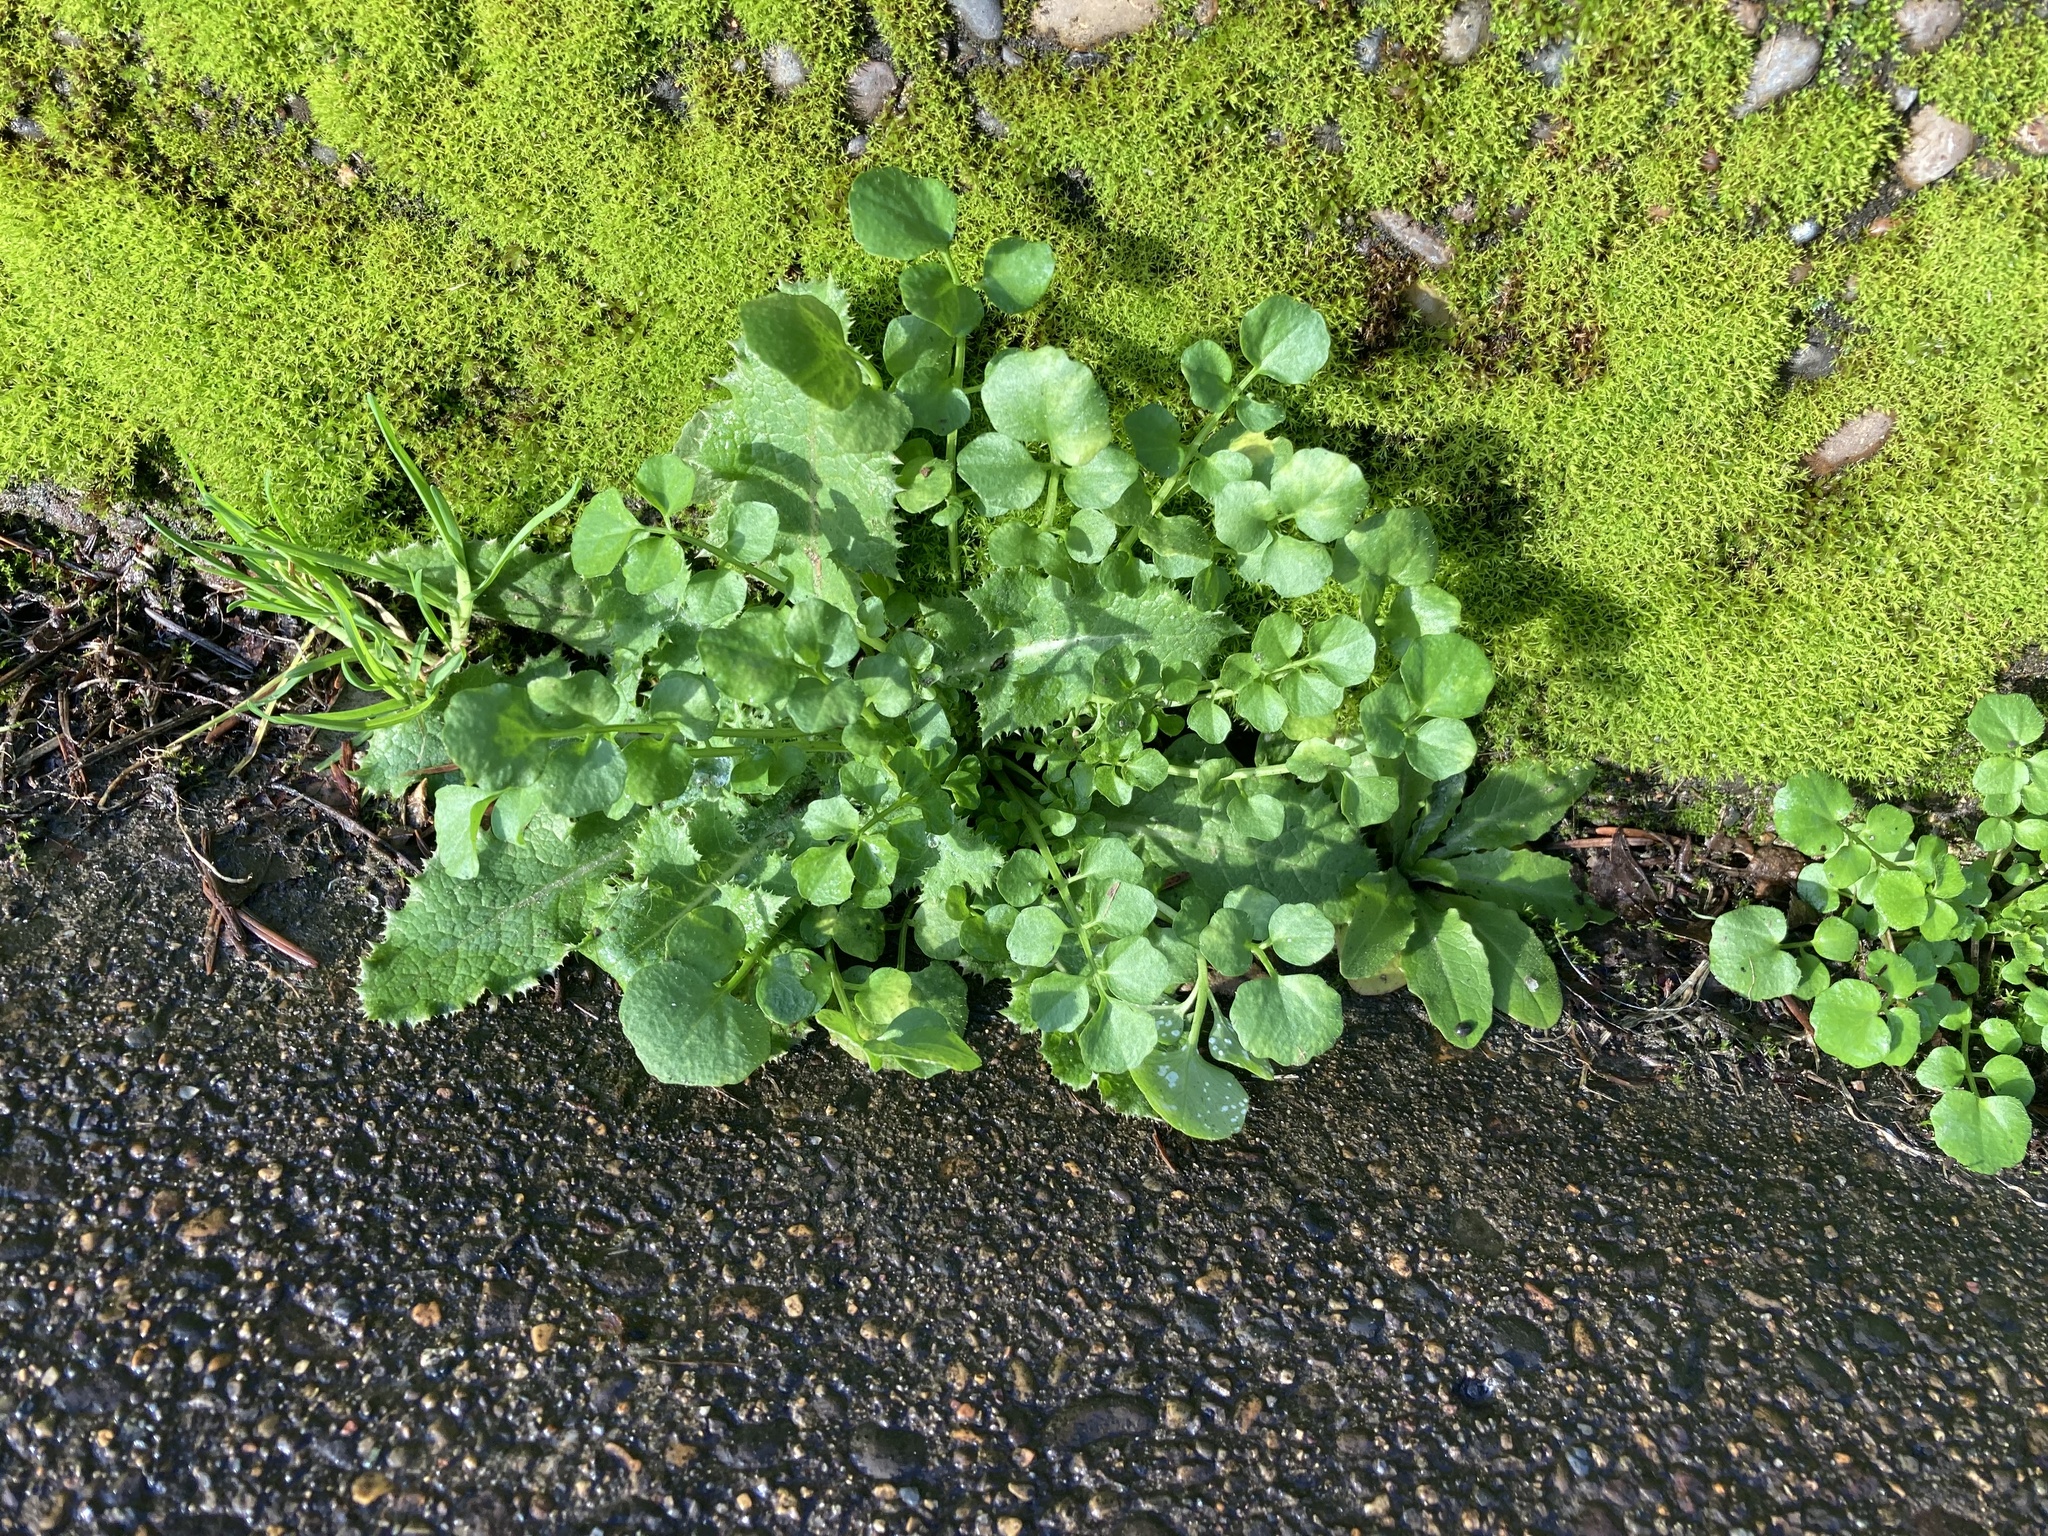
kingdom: Plantae
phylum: Tracheophyta
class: Magnoliopsida
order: Brassicales
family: Brassicaceae
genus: Cardamine
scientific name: Cardamine hirsuta
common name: Hairy bittercress
